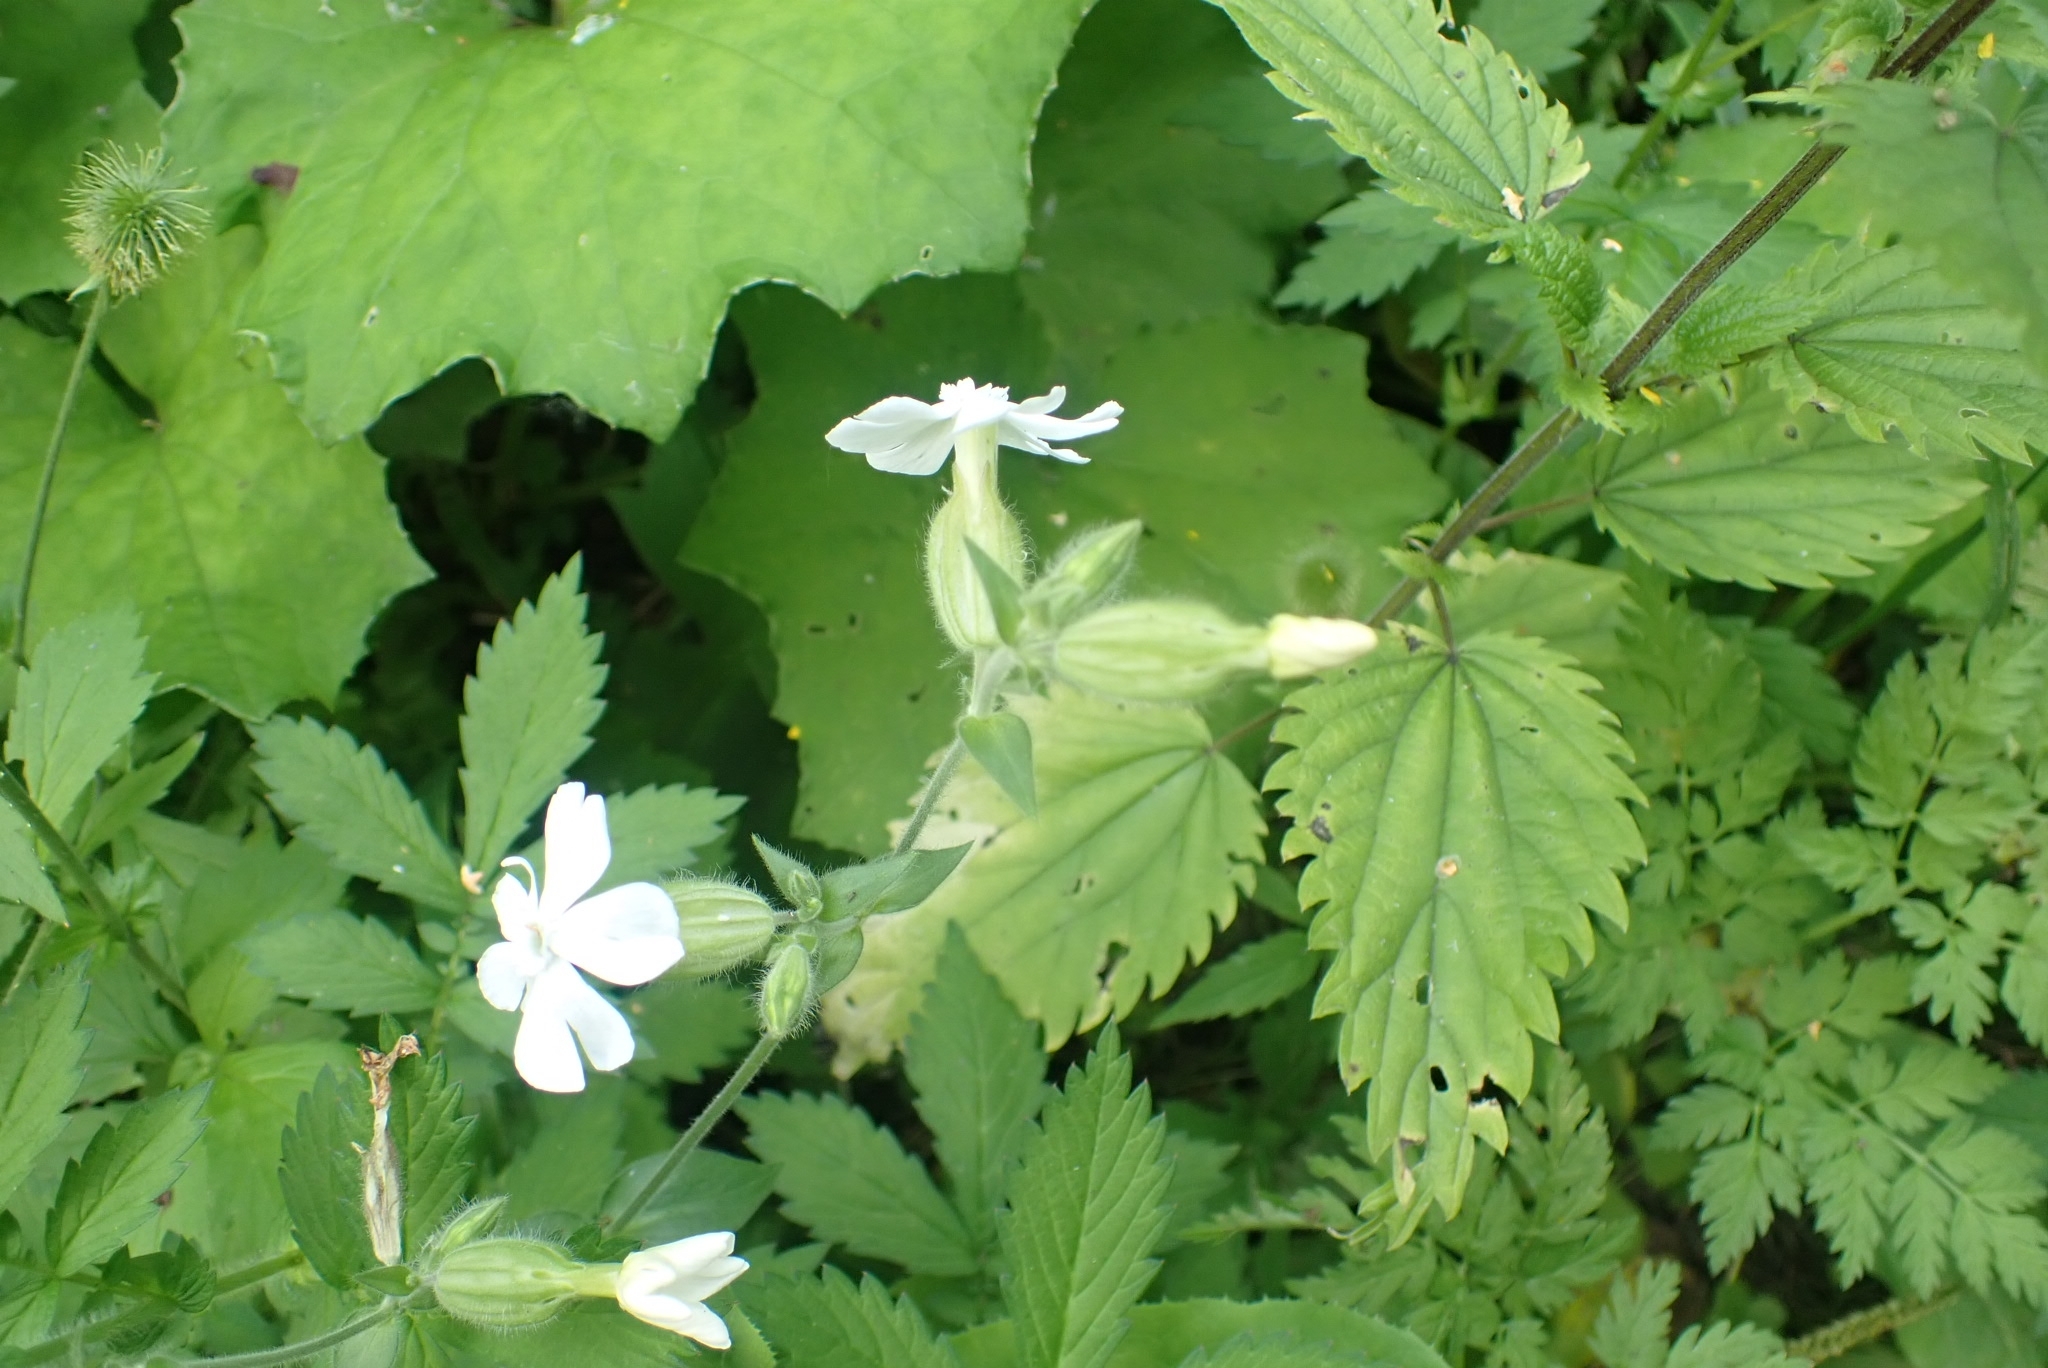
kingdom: Plantae
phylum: Tracheophyta
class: Magnoliopsida
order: Caryophyllales
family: Caryophyllaceae
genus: Silene
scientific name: Silene latifolia
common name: White campion
